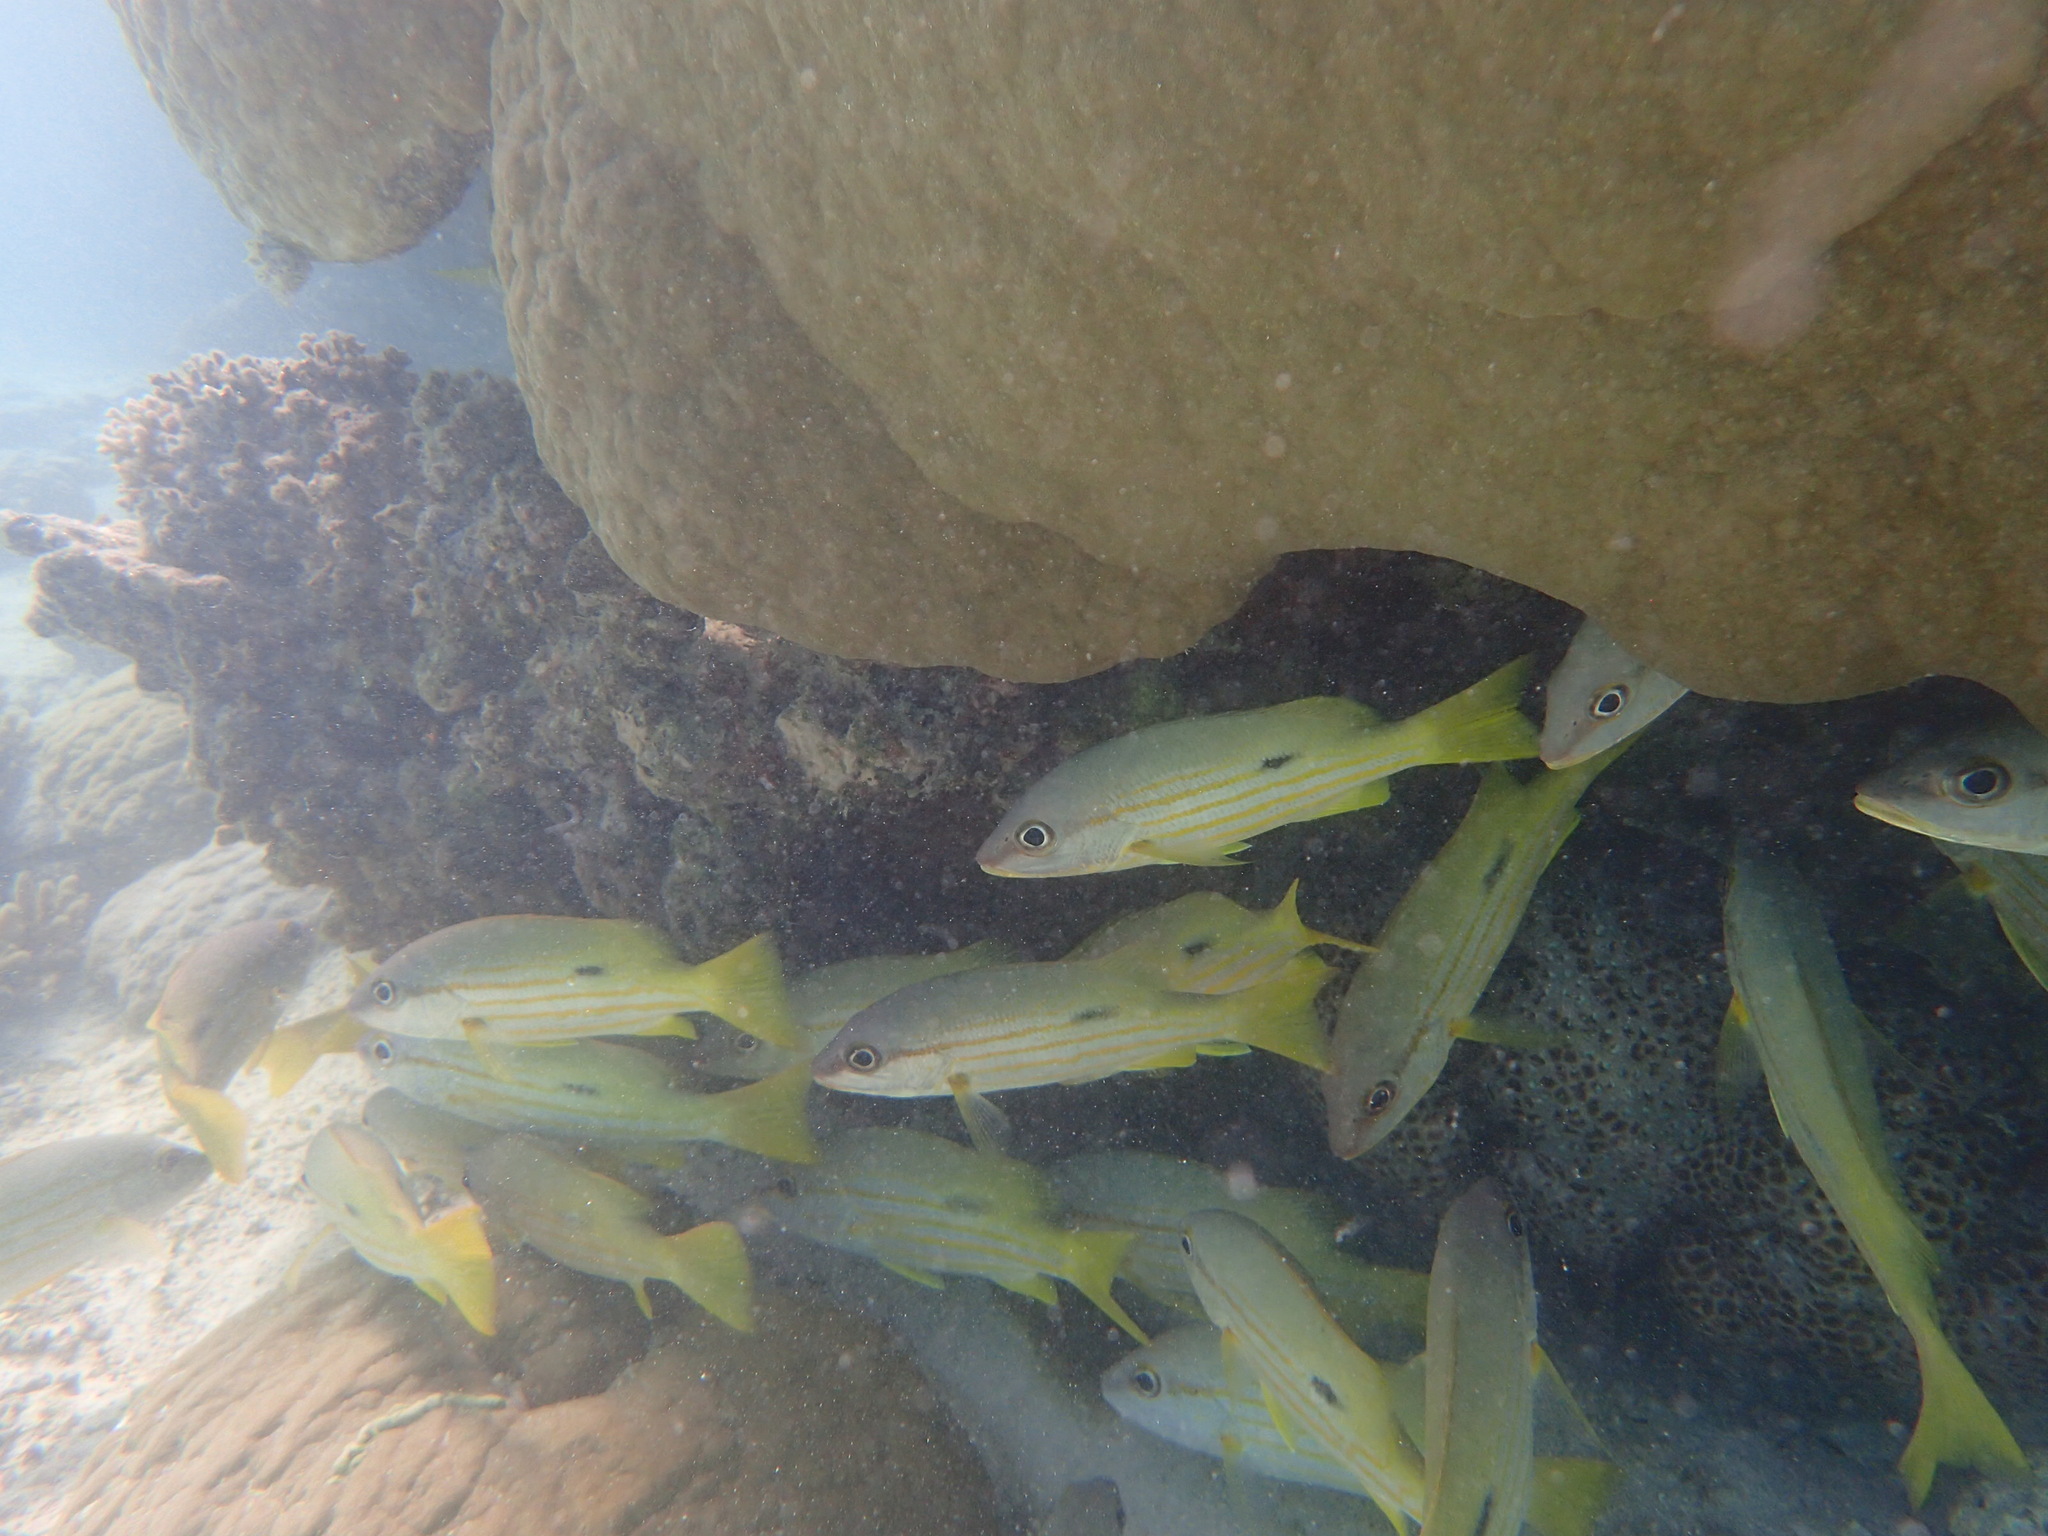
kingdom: Animalia
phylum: Chordata
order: Perciformes
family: Lutjanidae
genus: Lutjanus
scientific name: Lutjanus fulviflamma
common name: Blackspot snapper
